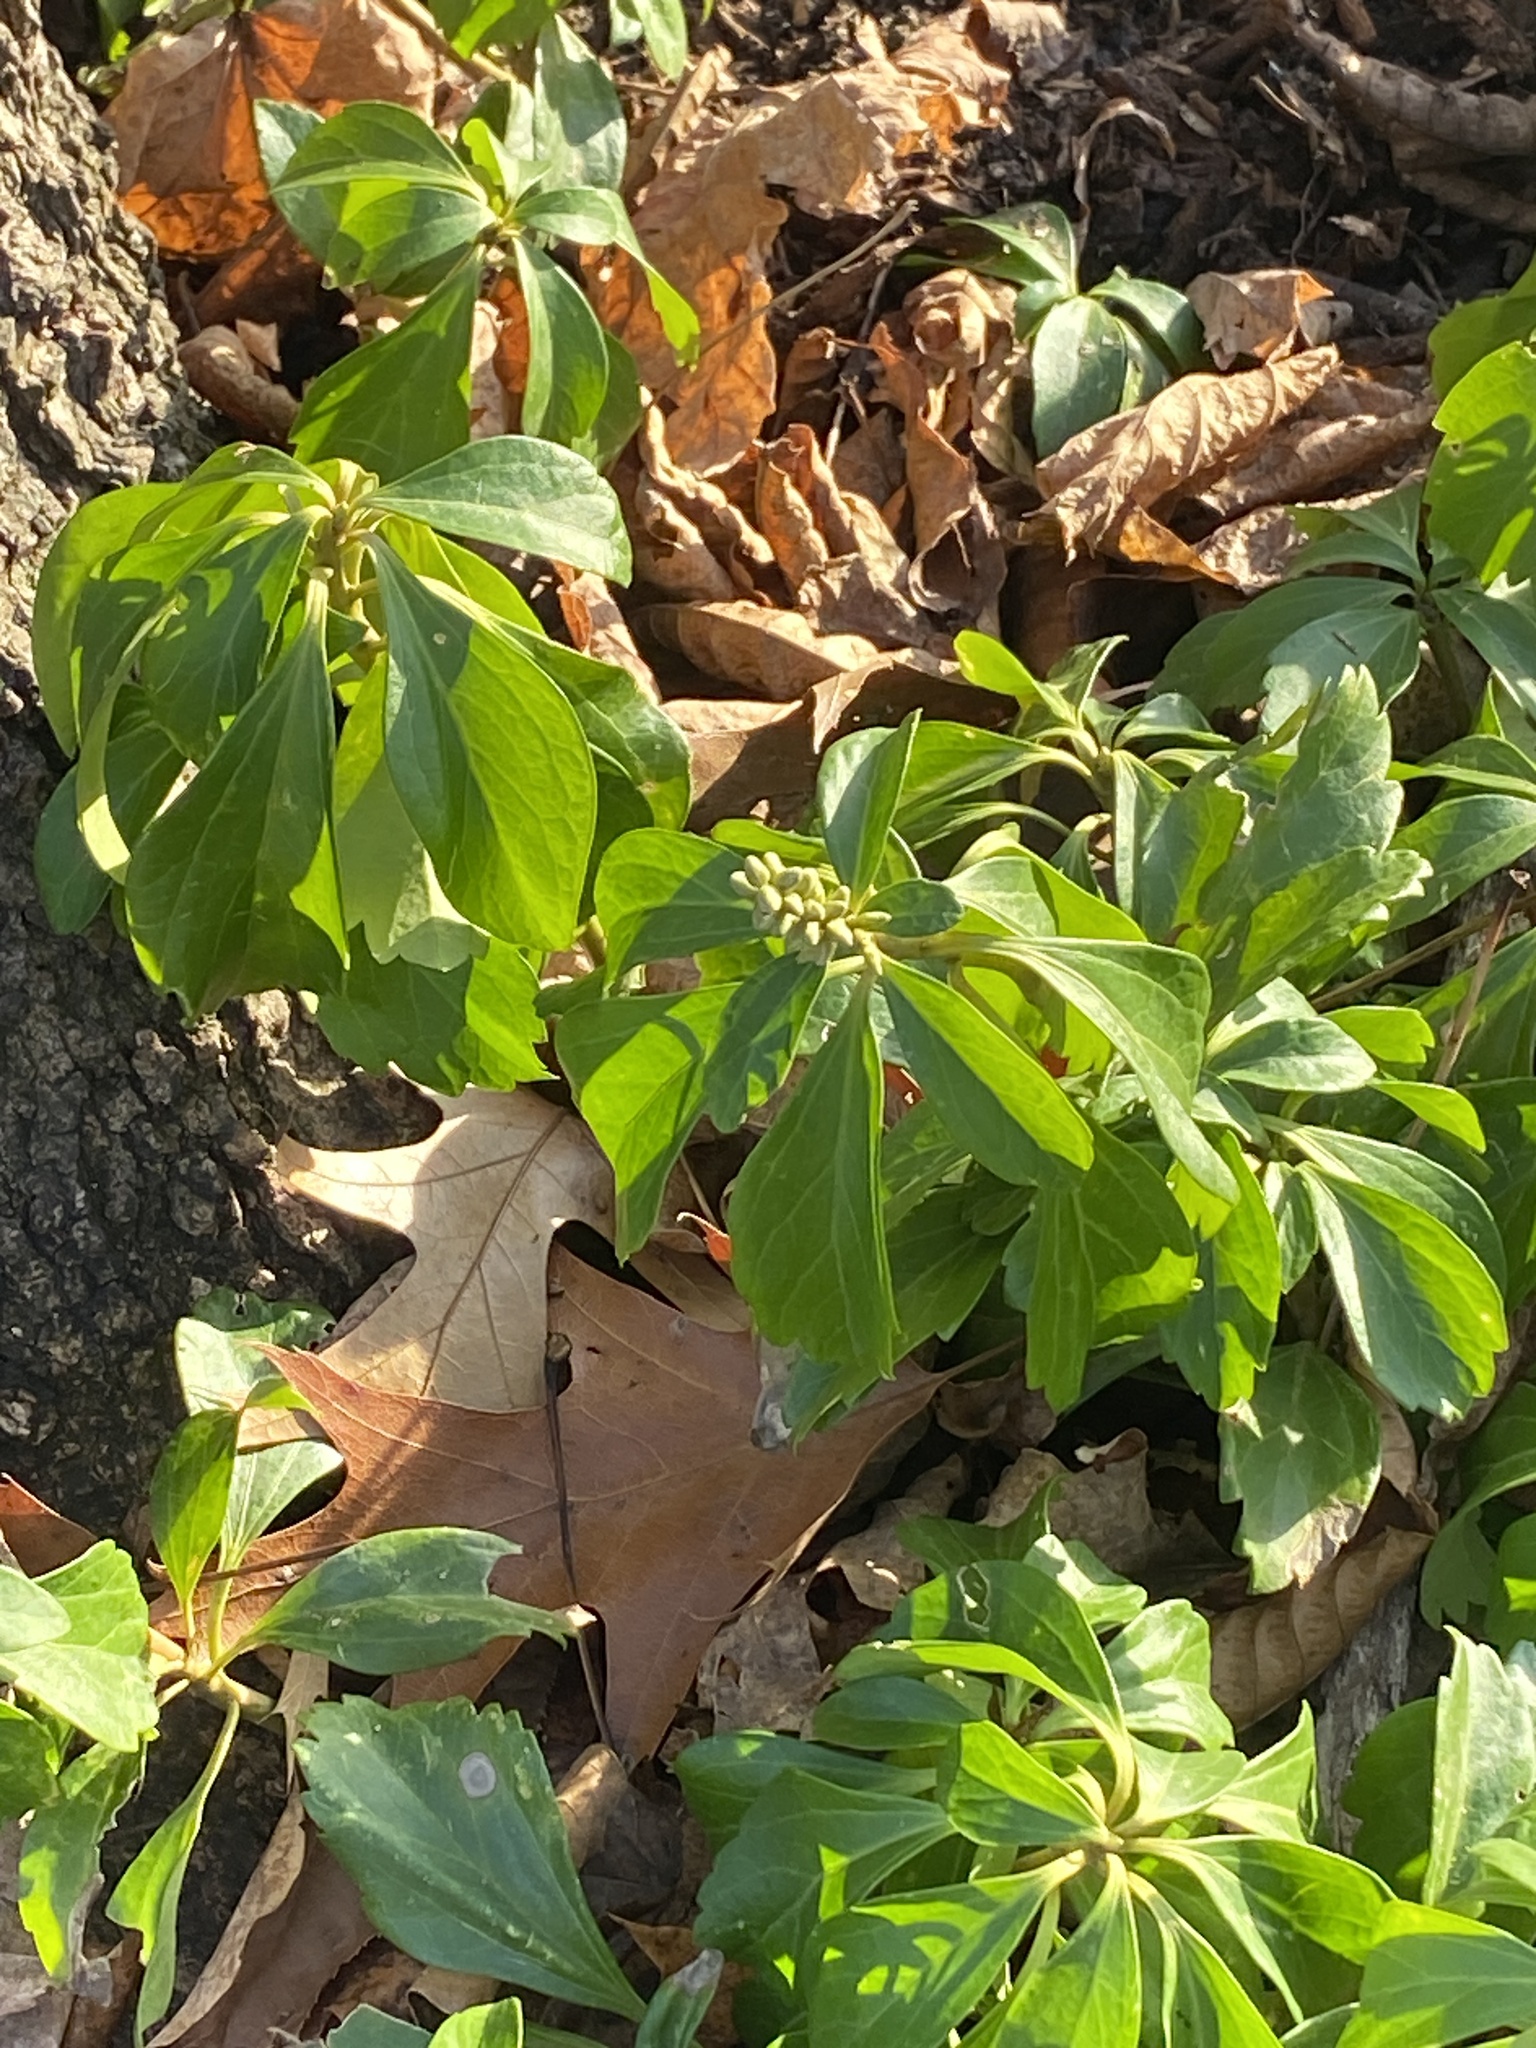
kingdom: Plantae
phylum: Tracheophyta
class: Magnoliopsida
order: Buxales
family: Buxaceae
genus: Pachysandra
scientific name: Pachysandra terminalis
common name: Japanese pachysandra
